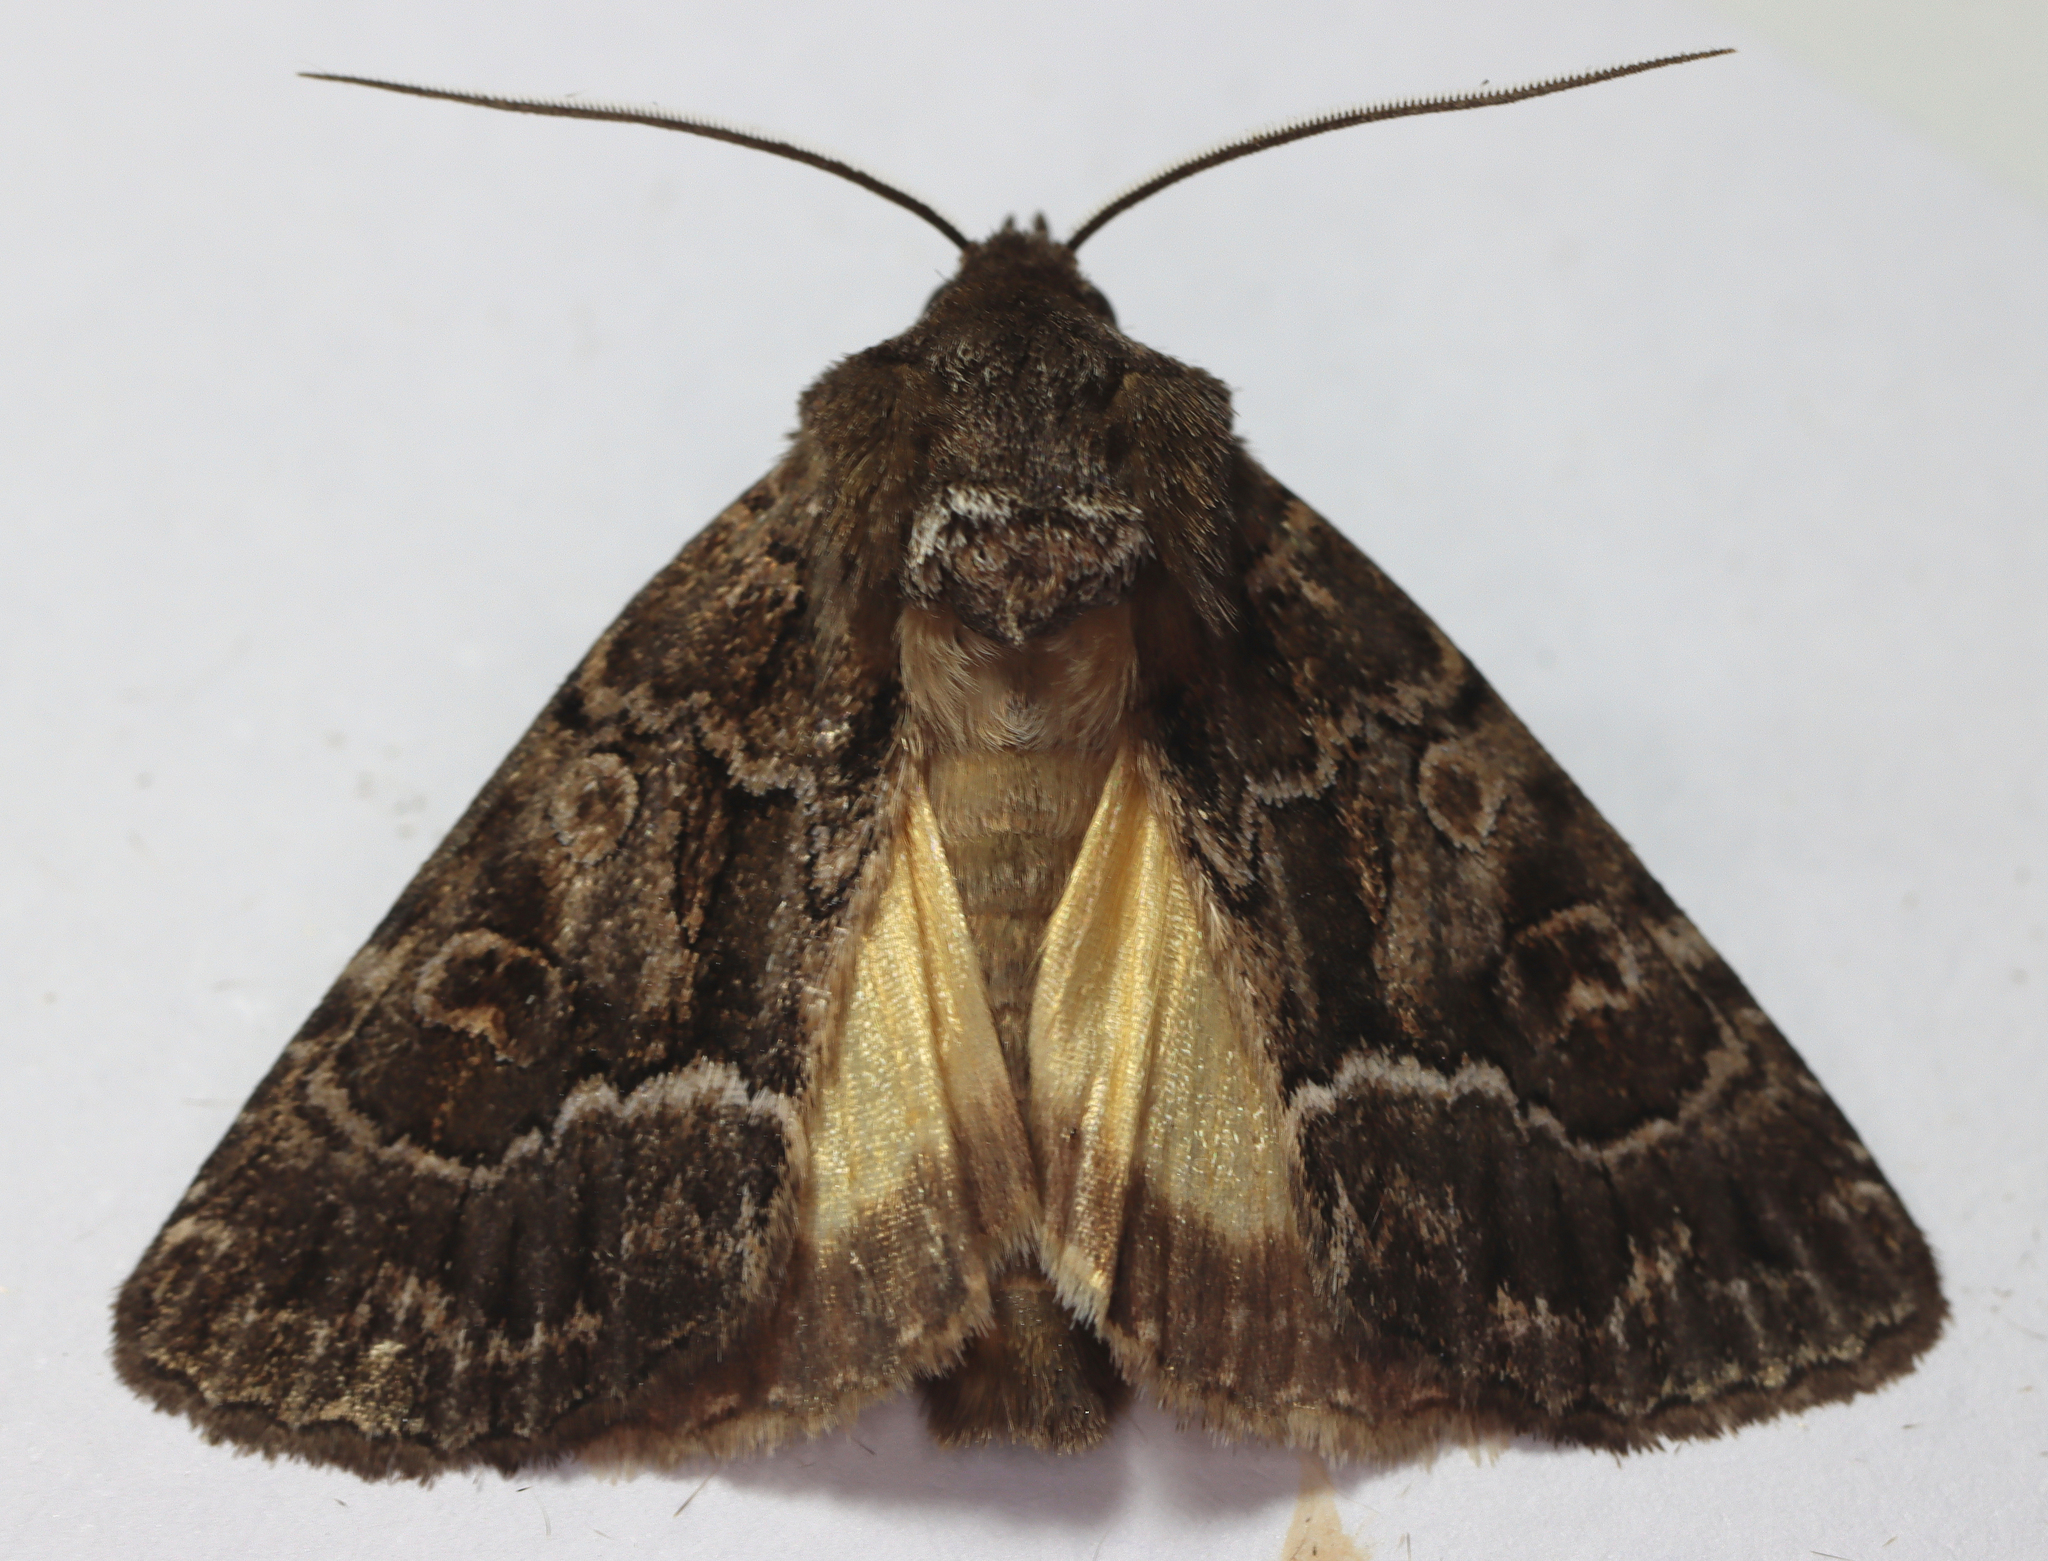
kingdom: Animalia
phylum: Arthropoda
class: Insecta
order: Lepidoptera
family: Noctuidae
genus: Thalpophila
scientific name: Thalpophila matura
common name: Straw underwing
